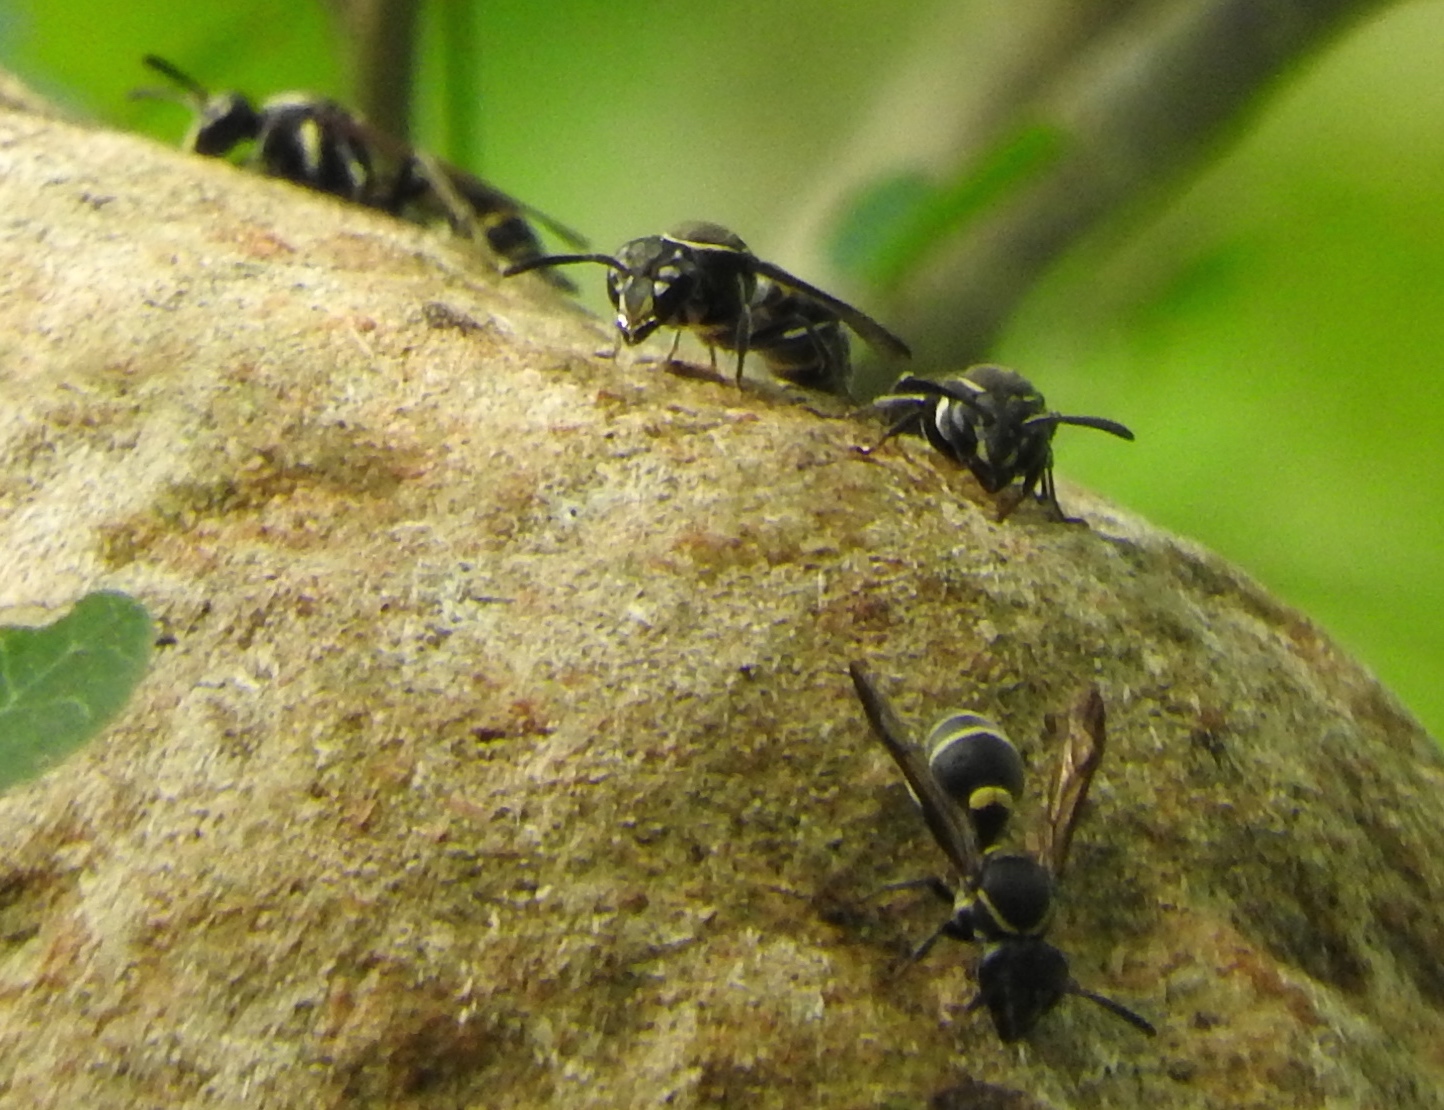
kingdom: Animalia
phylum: Arthropoda
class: Insecta
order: Hymenoptera
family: Vespidae
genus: Myrapetra
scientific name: Myrapetra
